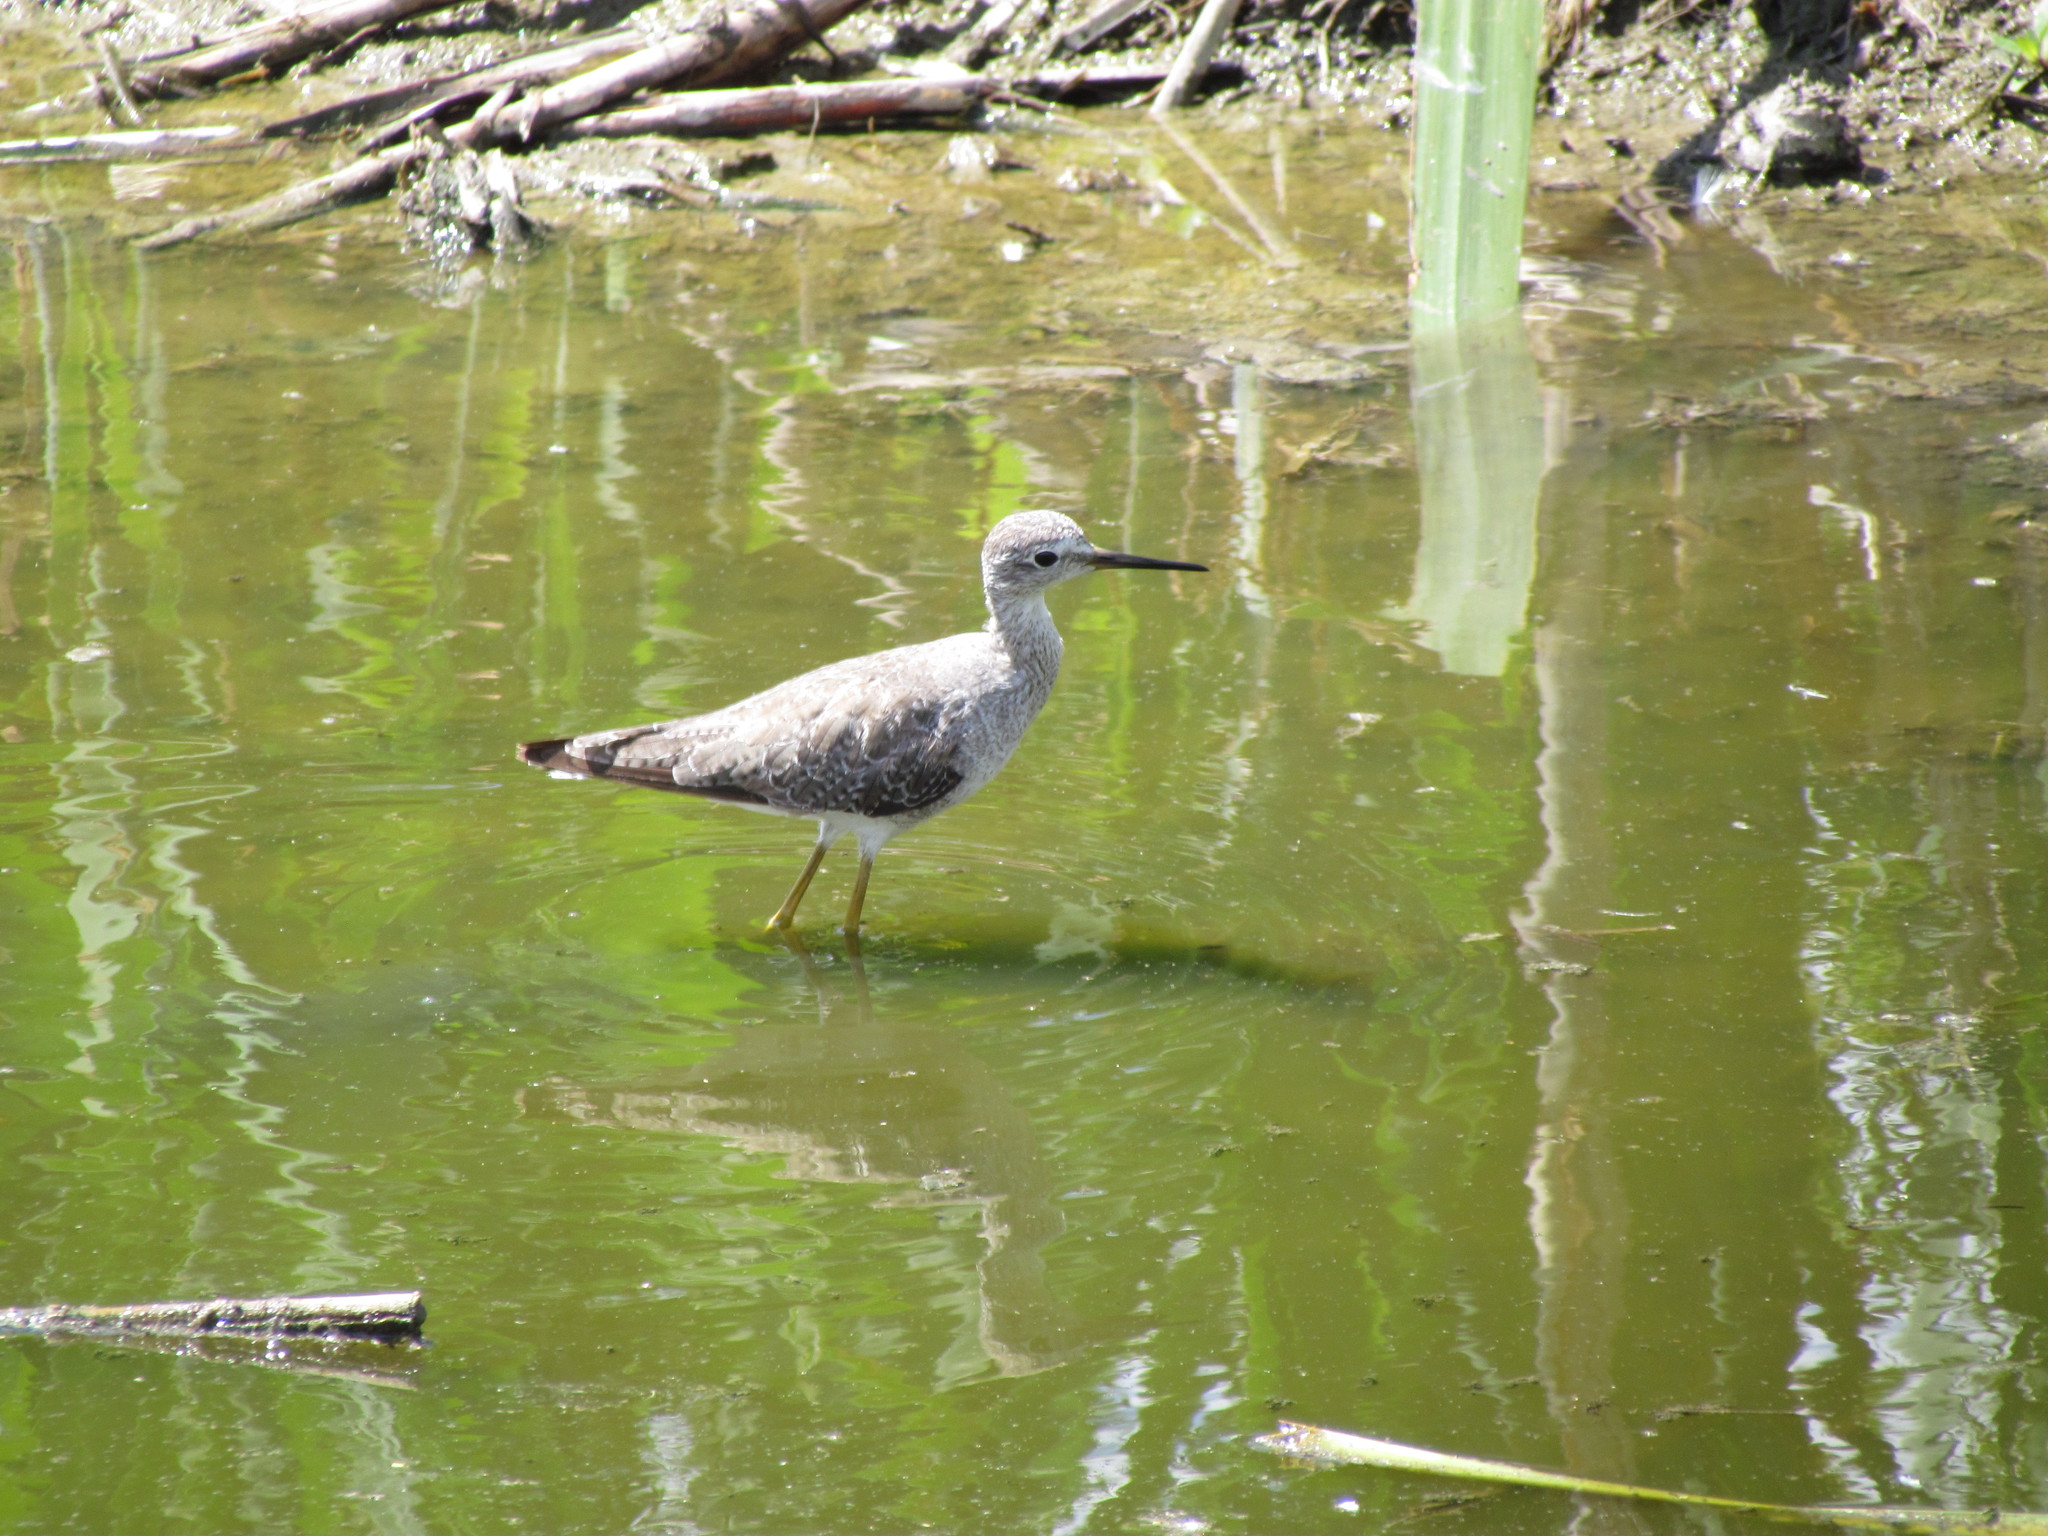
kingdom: Animalia
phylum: Chordata
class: Aves
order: Charadriiformes
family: Scolopacidae
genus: Tringa
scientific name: Tringa flavipes
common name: Lesser yellowlegs
